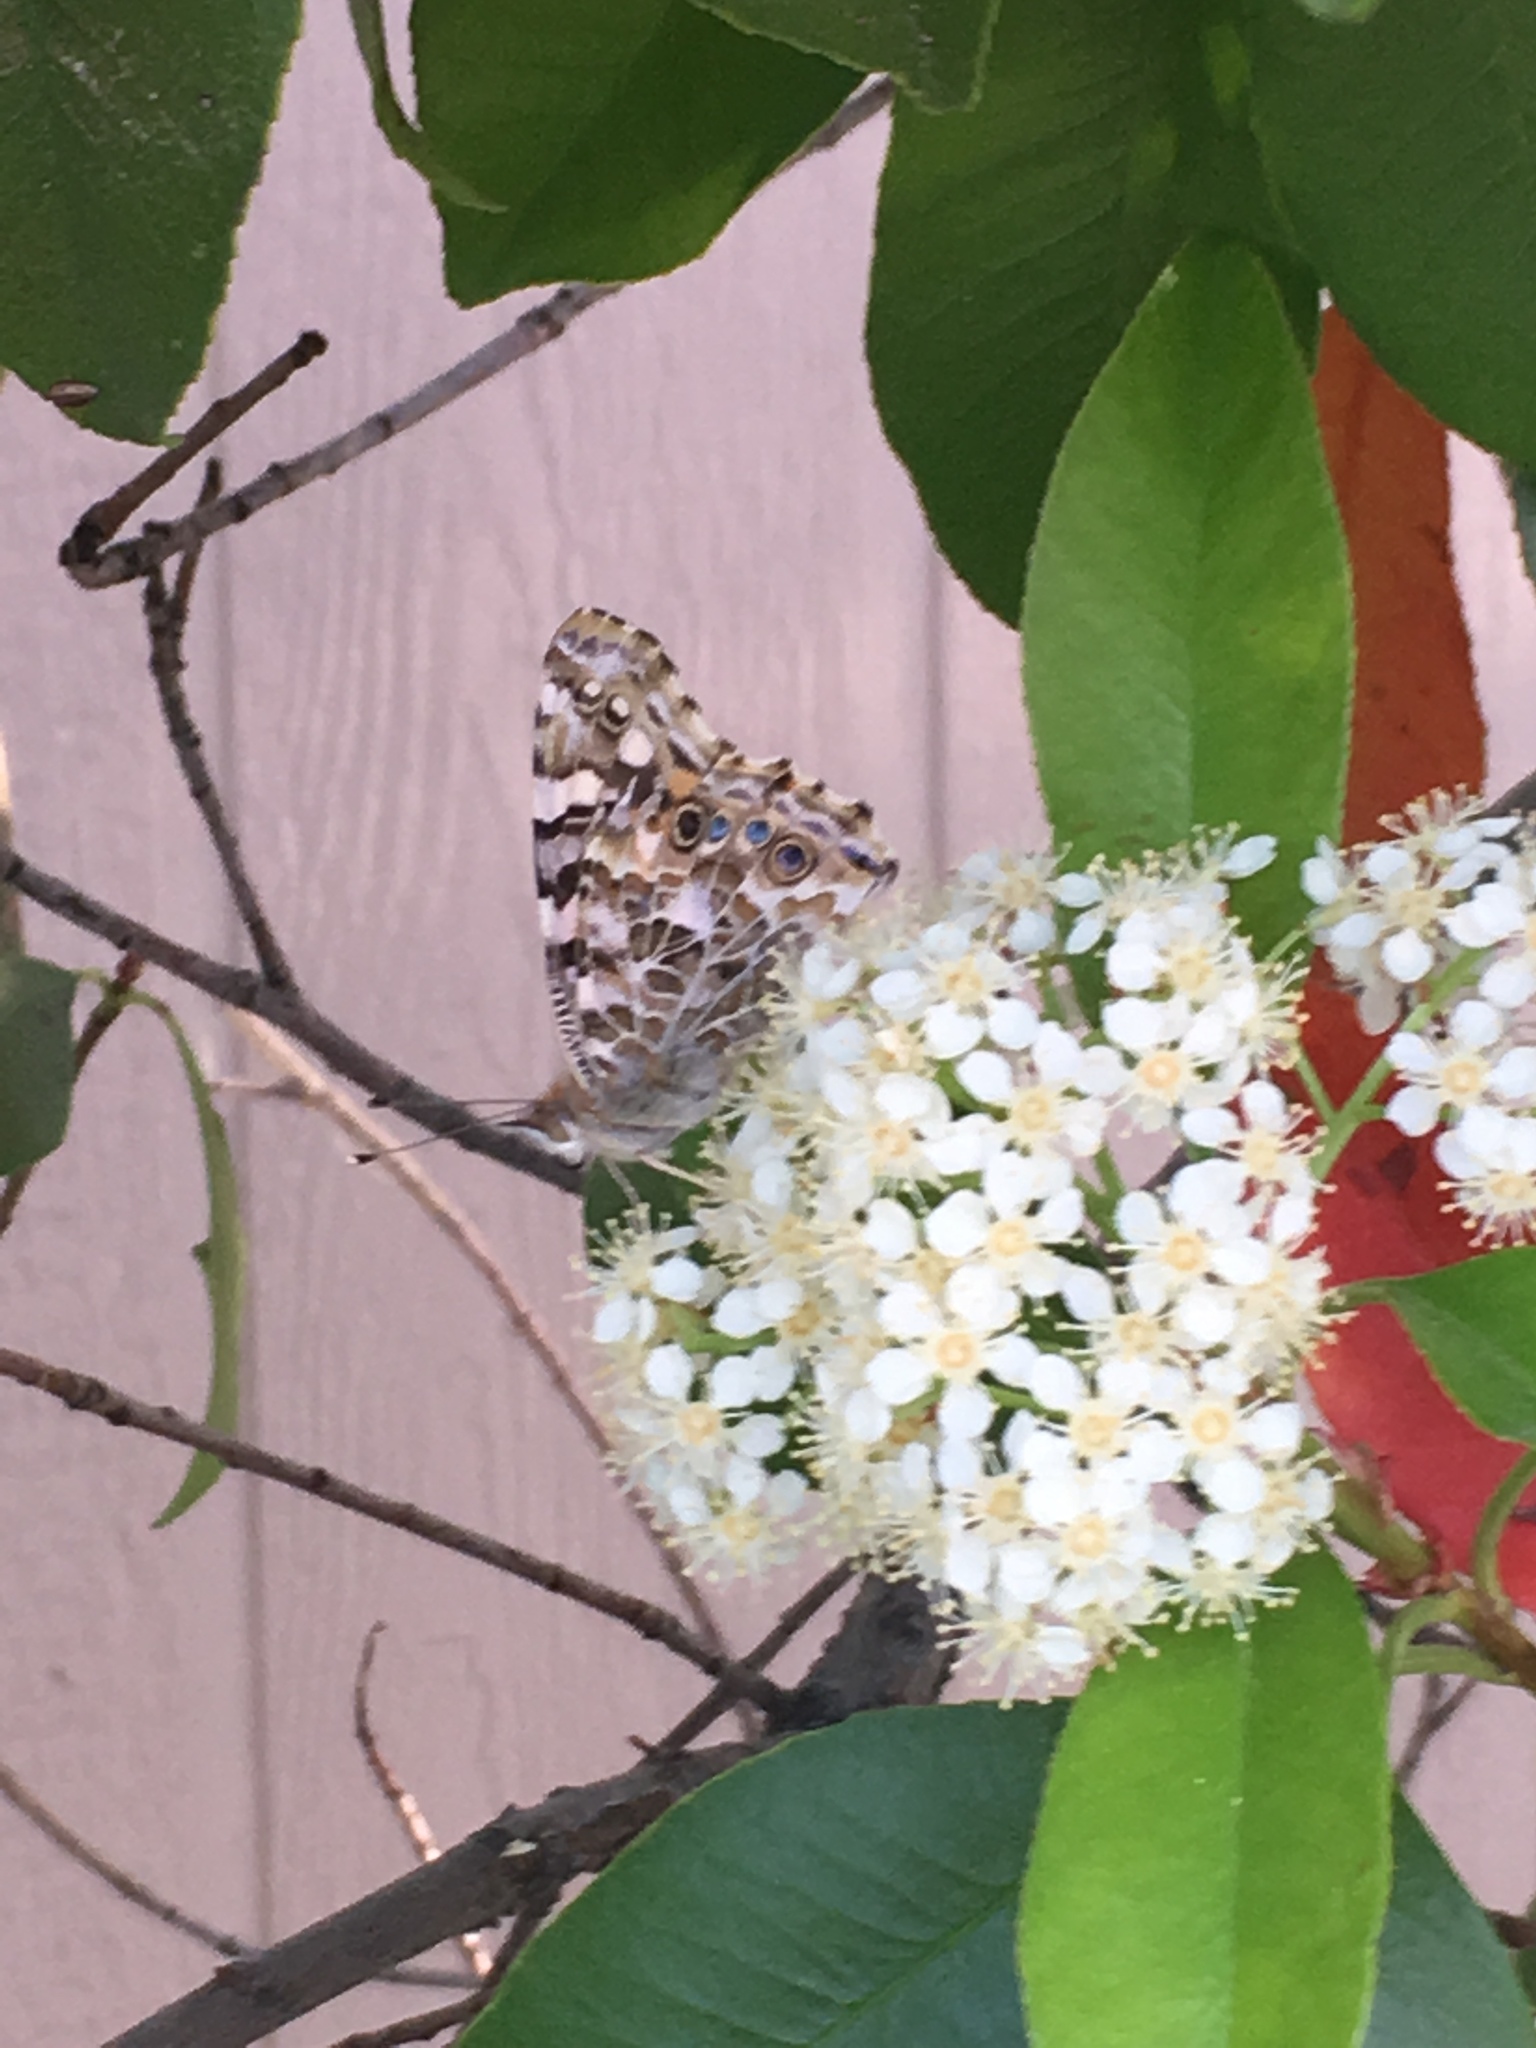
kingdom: Animalia
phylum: Arthropoda
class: Insecta
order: Lepidoptera
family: Nymphalidae
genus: Vanessa
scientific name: Vanessa cardui
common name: Painted lady
